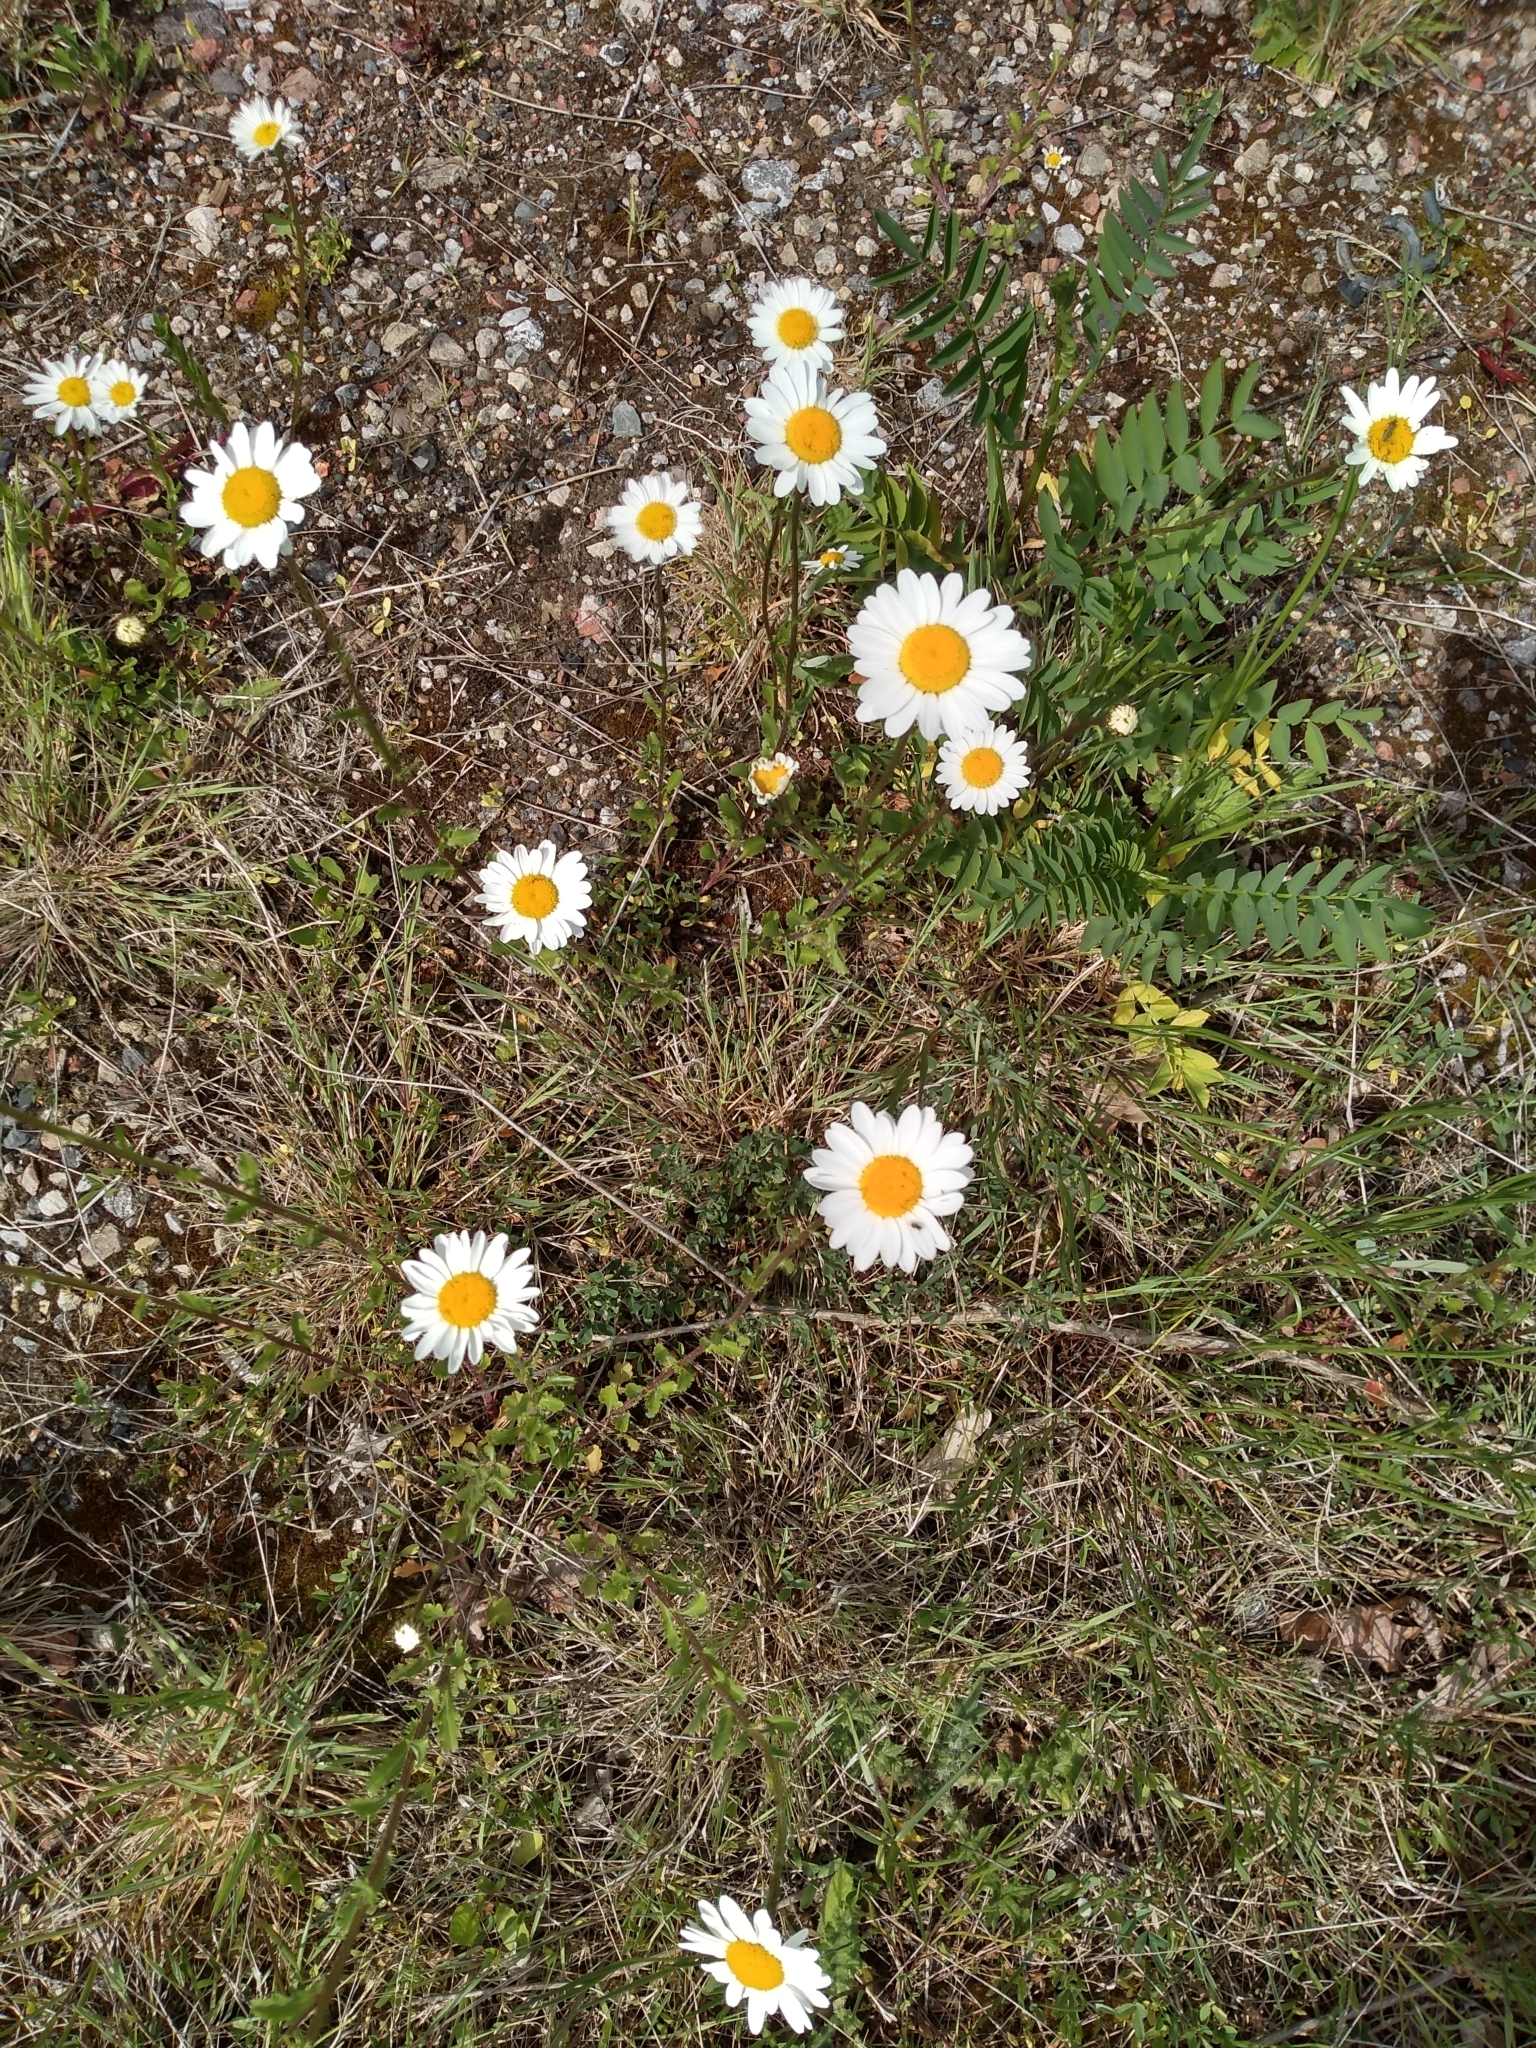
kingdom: Plantae
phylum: Tracheophyta
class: Magnoliopsida
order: Asterales
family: Asteraceae
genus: Leucanthemum
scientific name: Leucanthemum vulgare
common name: Oxeye daisy
